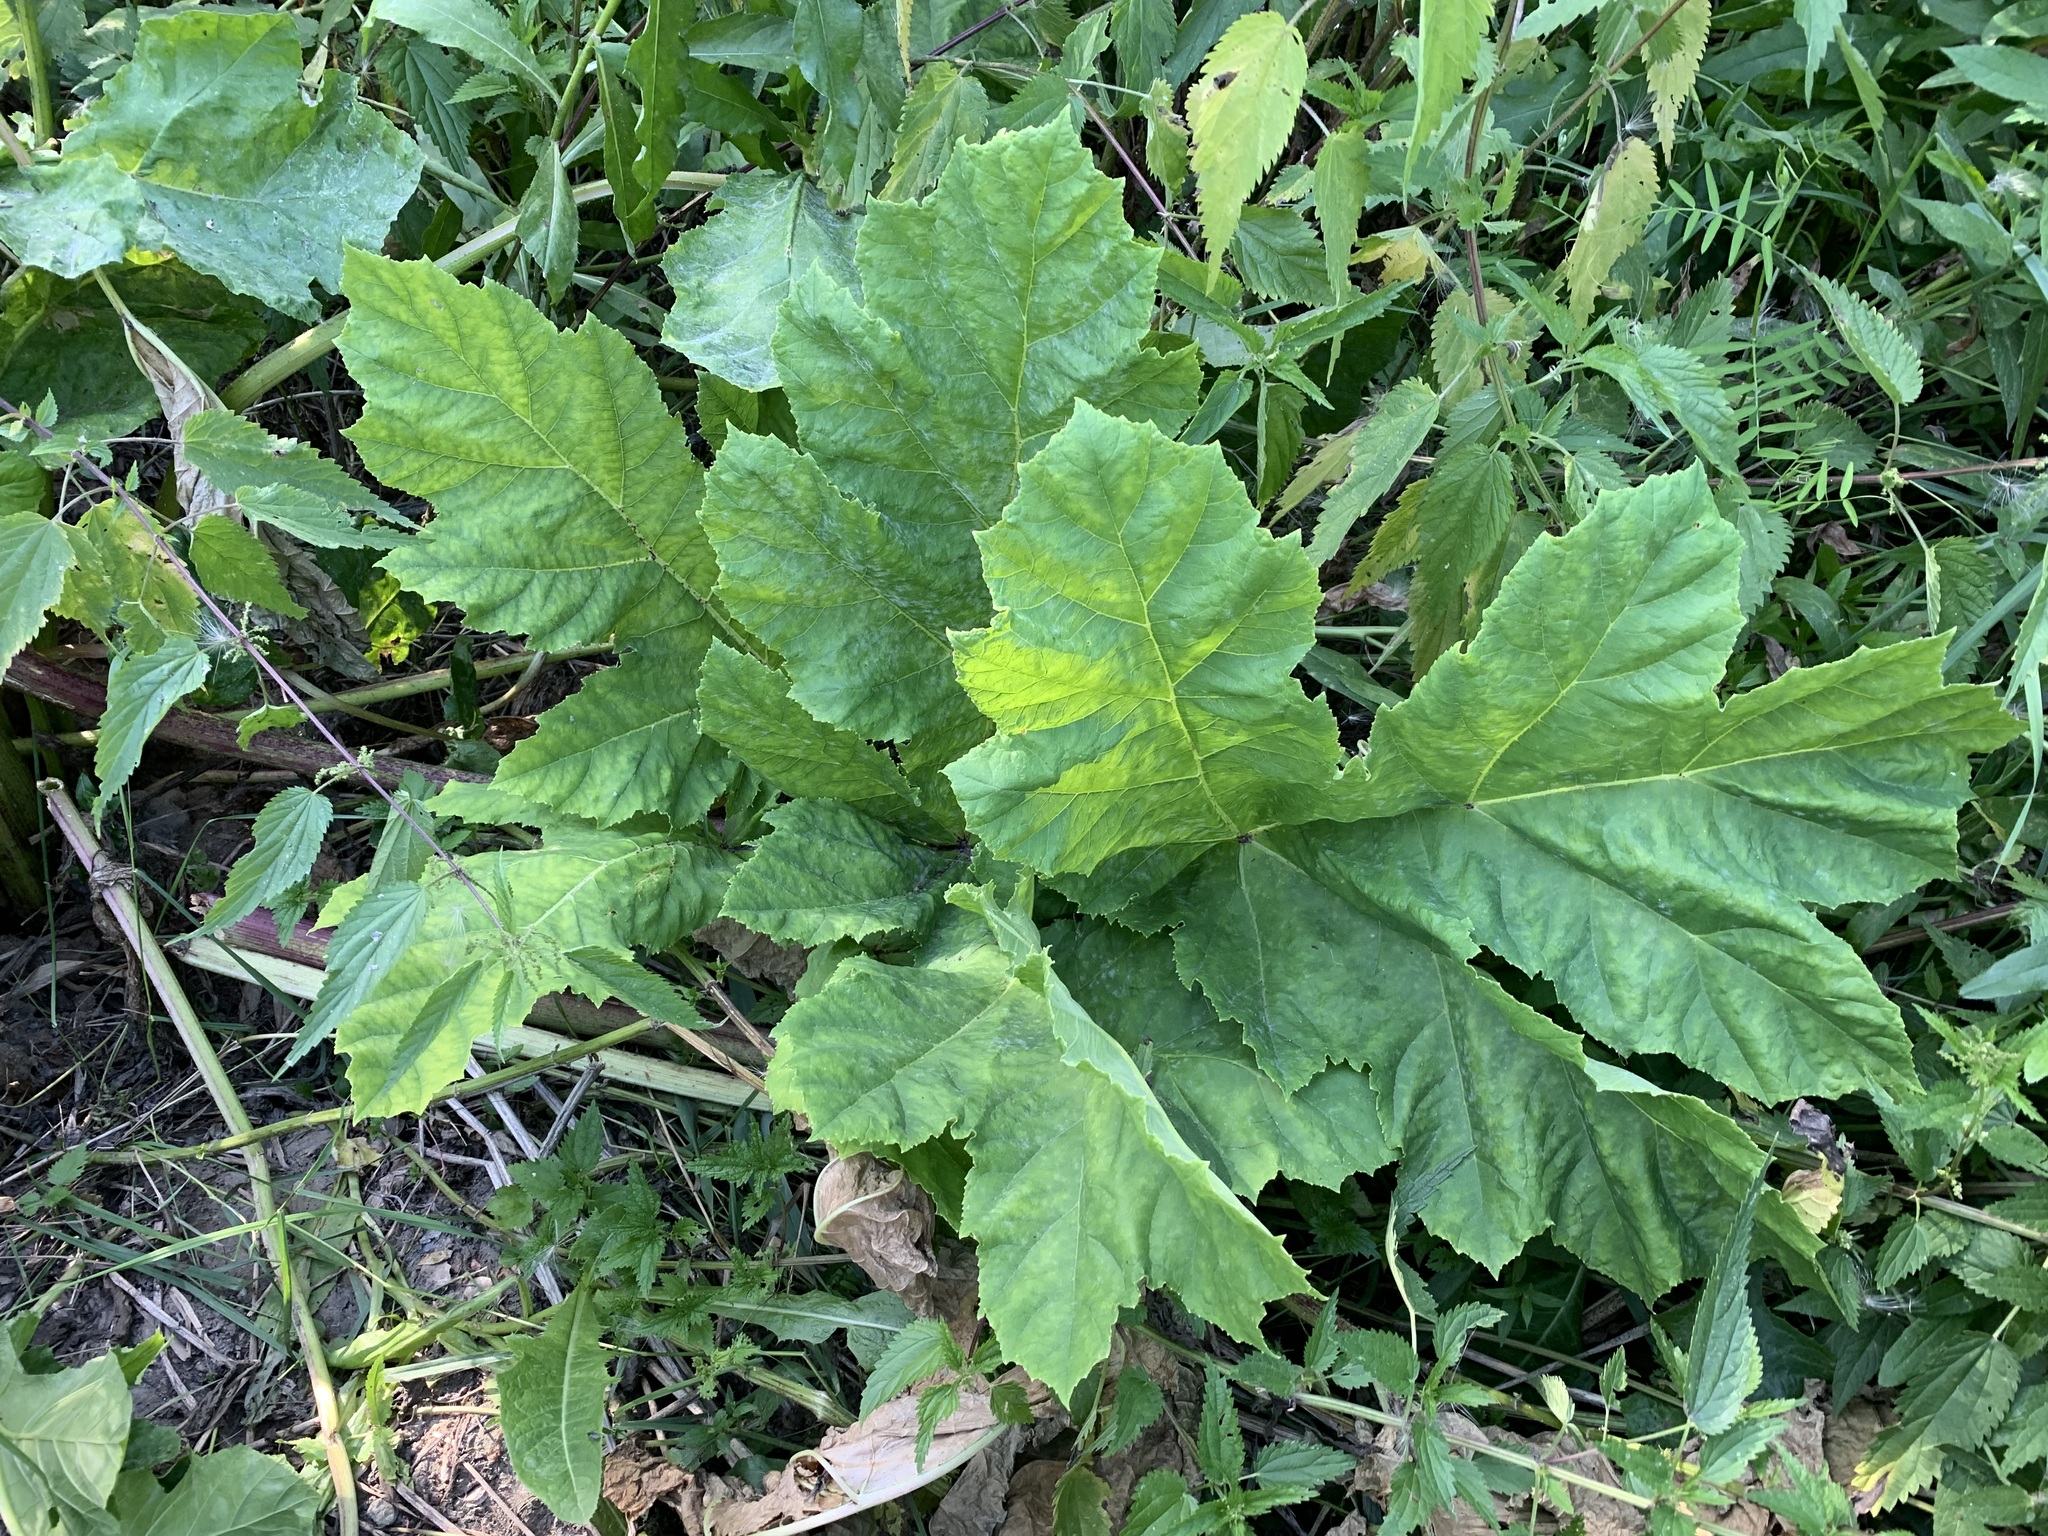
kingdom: Plantae
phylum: Tracheophyta
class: Magnoliopsida
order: Apiales
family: Apiaceae
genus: Heracleum
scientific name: Heracleum sosnowskyi
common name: Sosnowsky's hogweed
